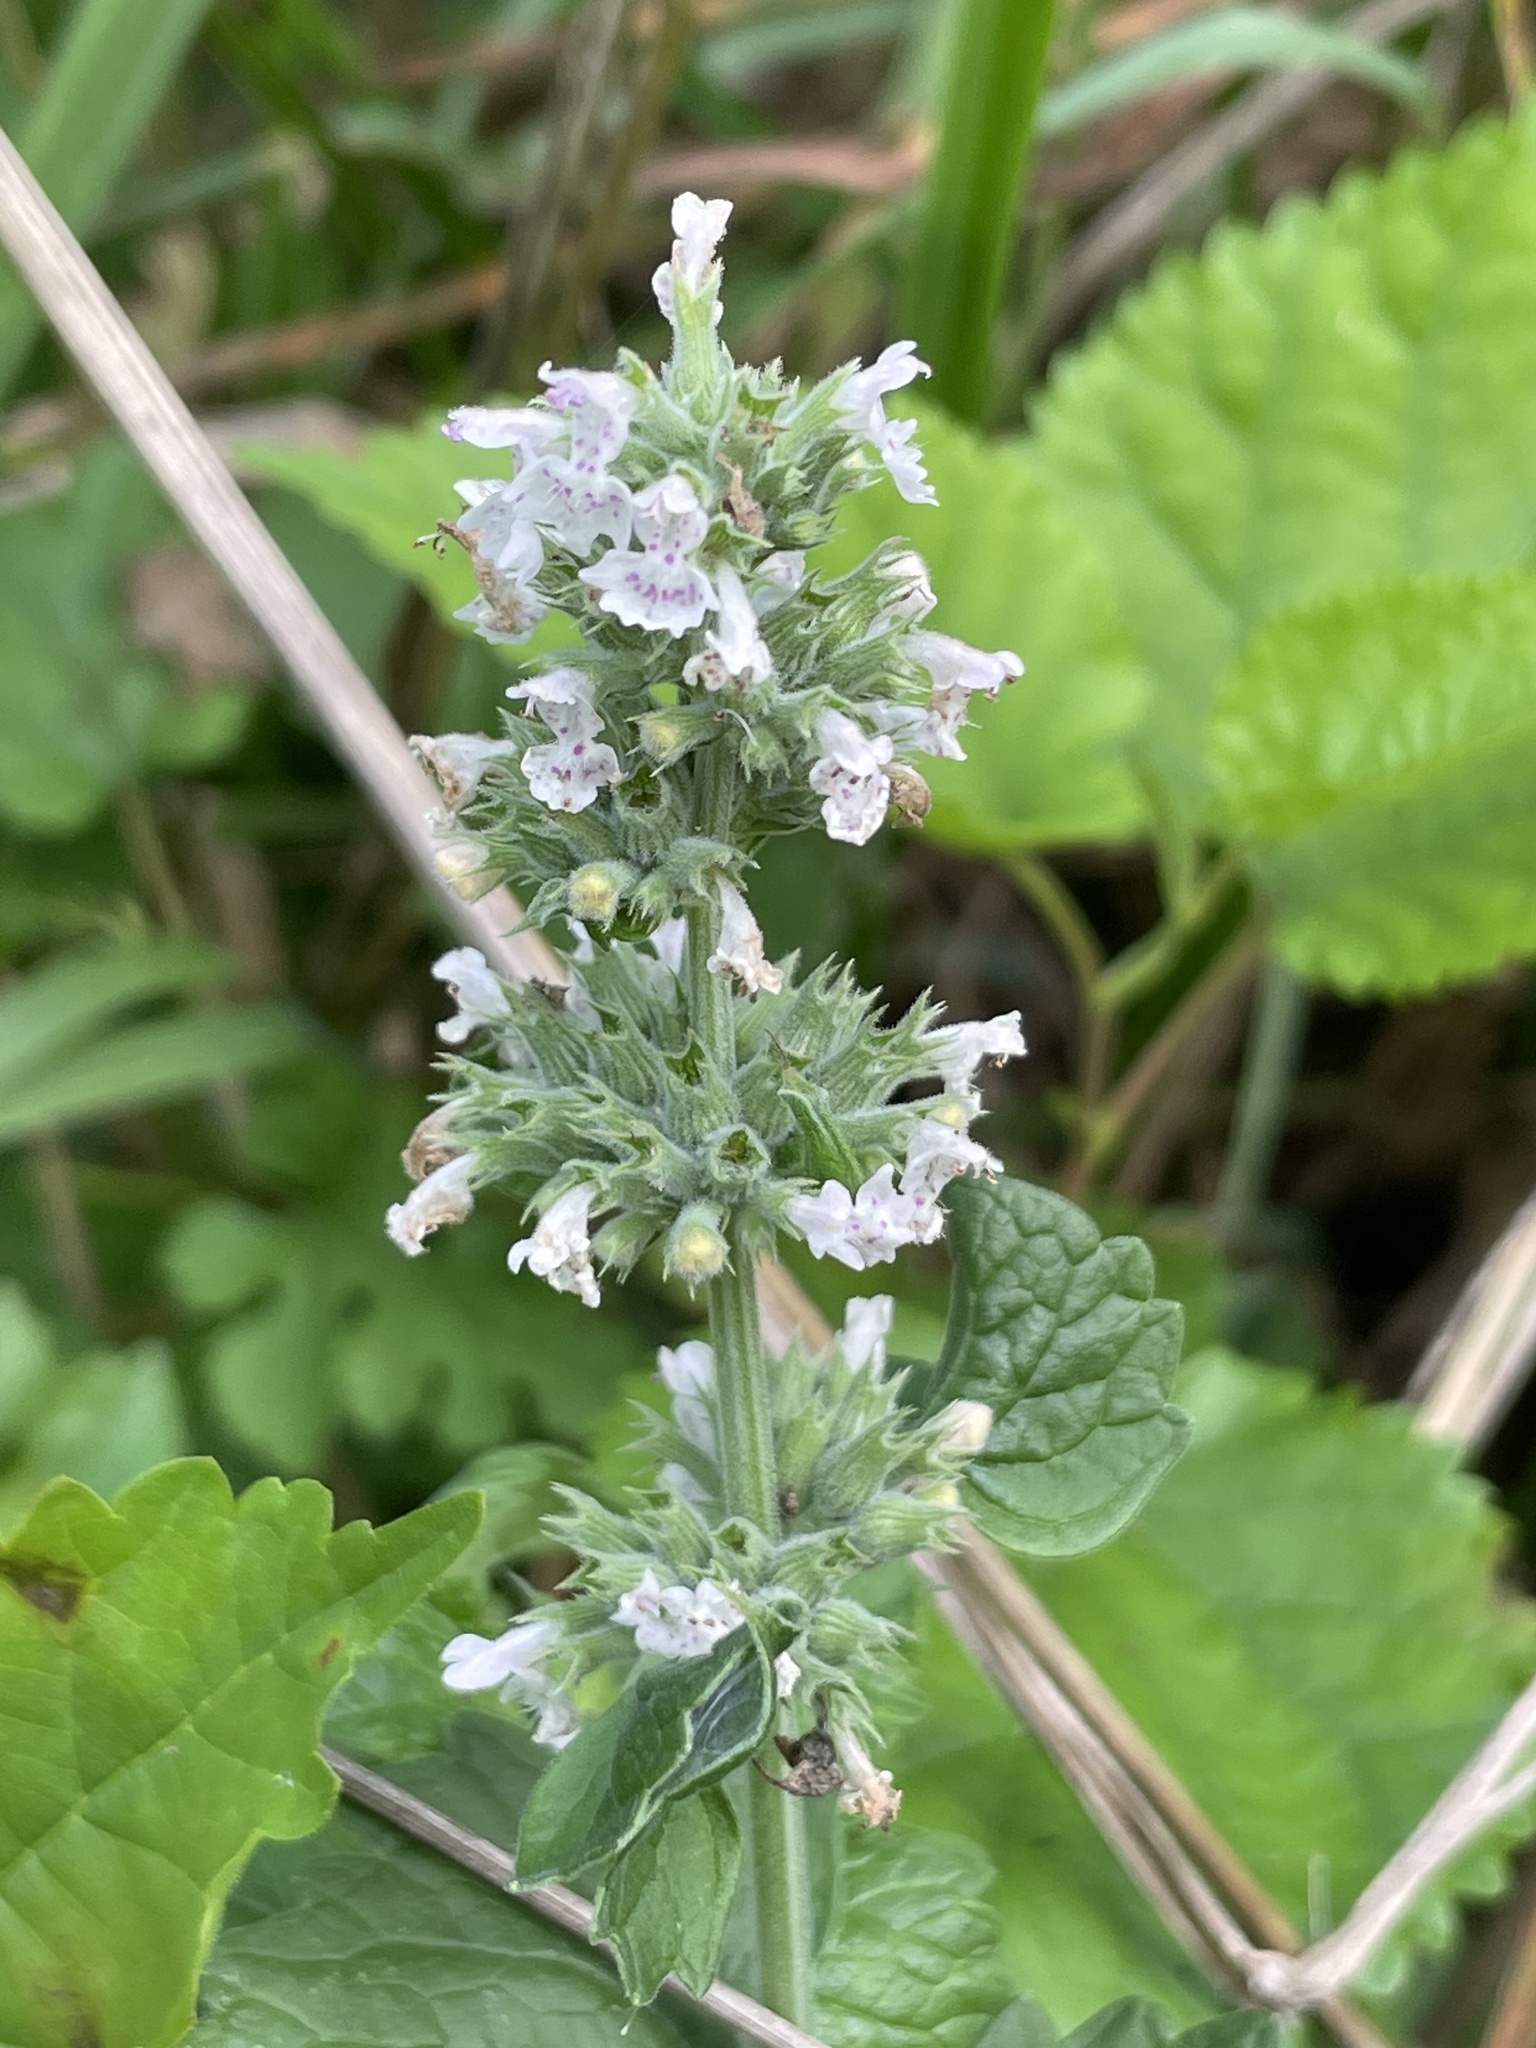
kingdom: Plantae
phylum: Tracheophyta
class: Magnoliopsida
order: Lamiales
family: Lamiaceae
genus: Nepeta
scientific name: Nepeta cataria
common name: Catnip
